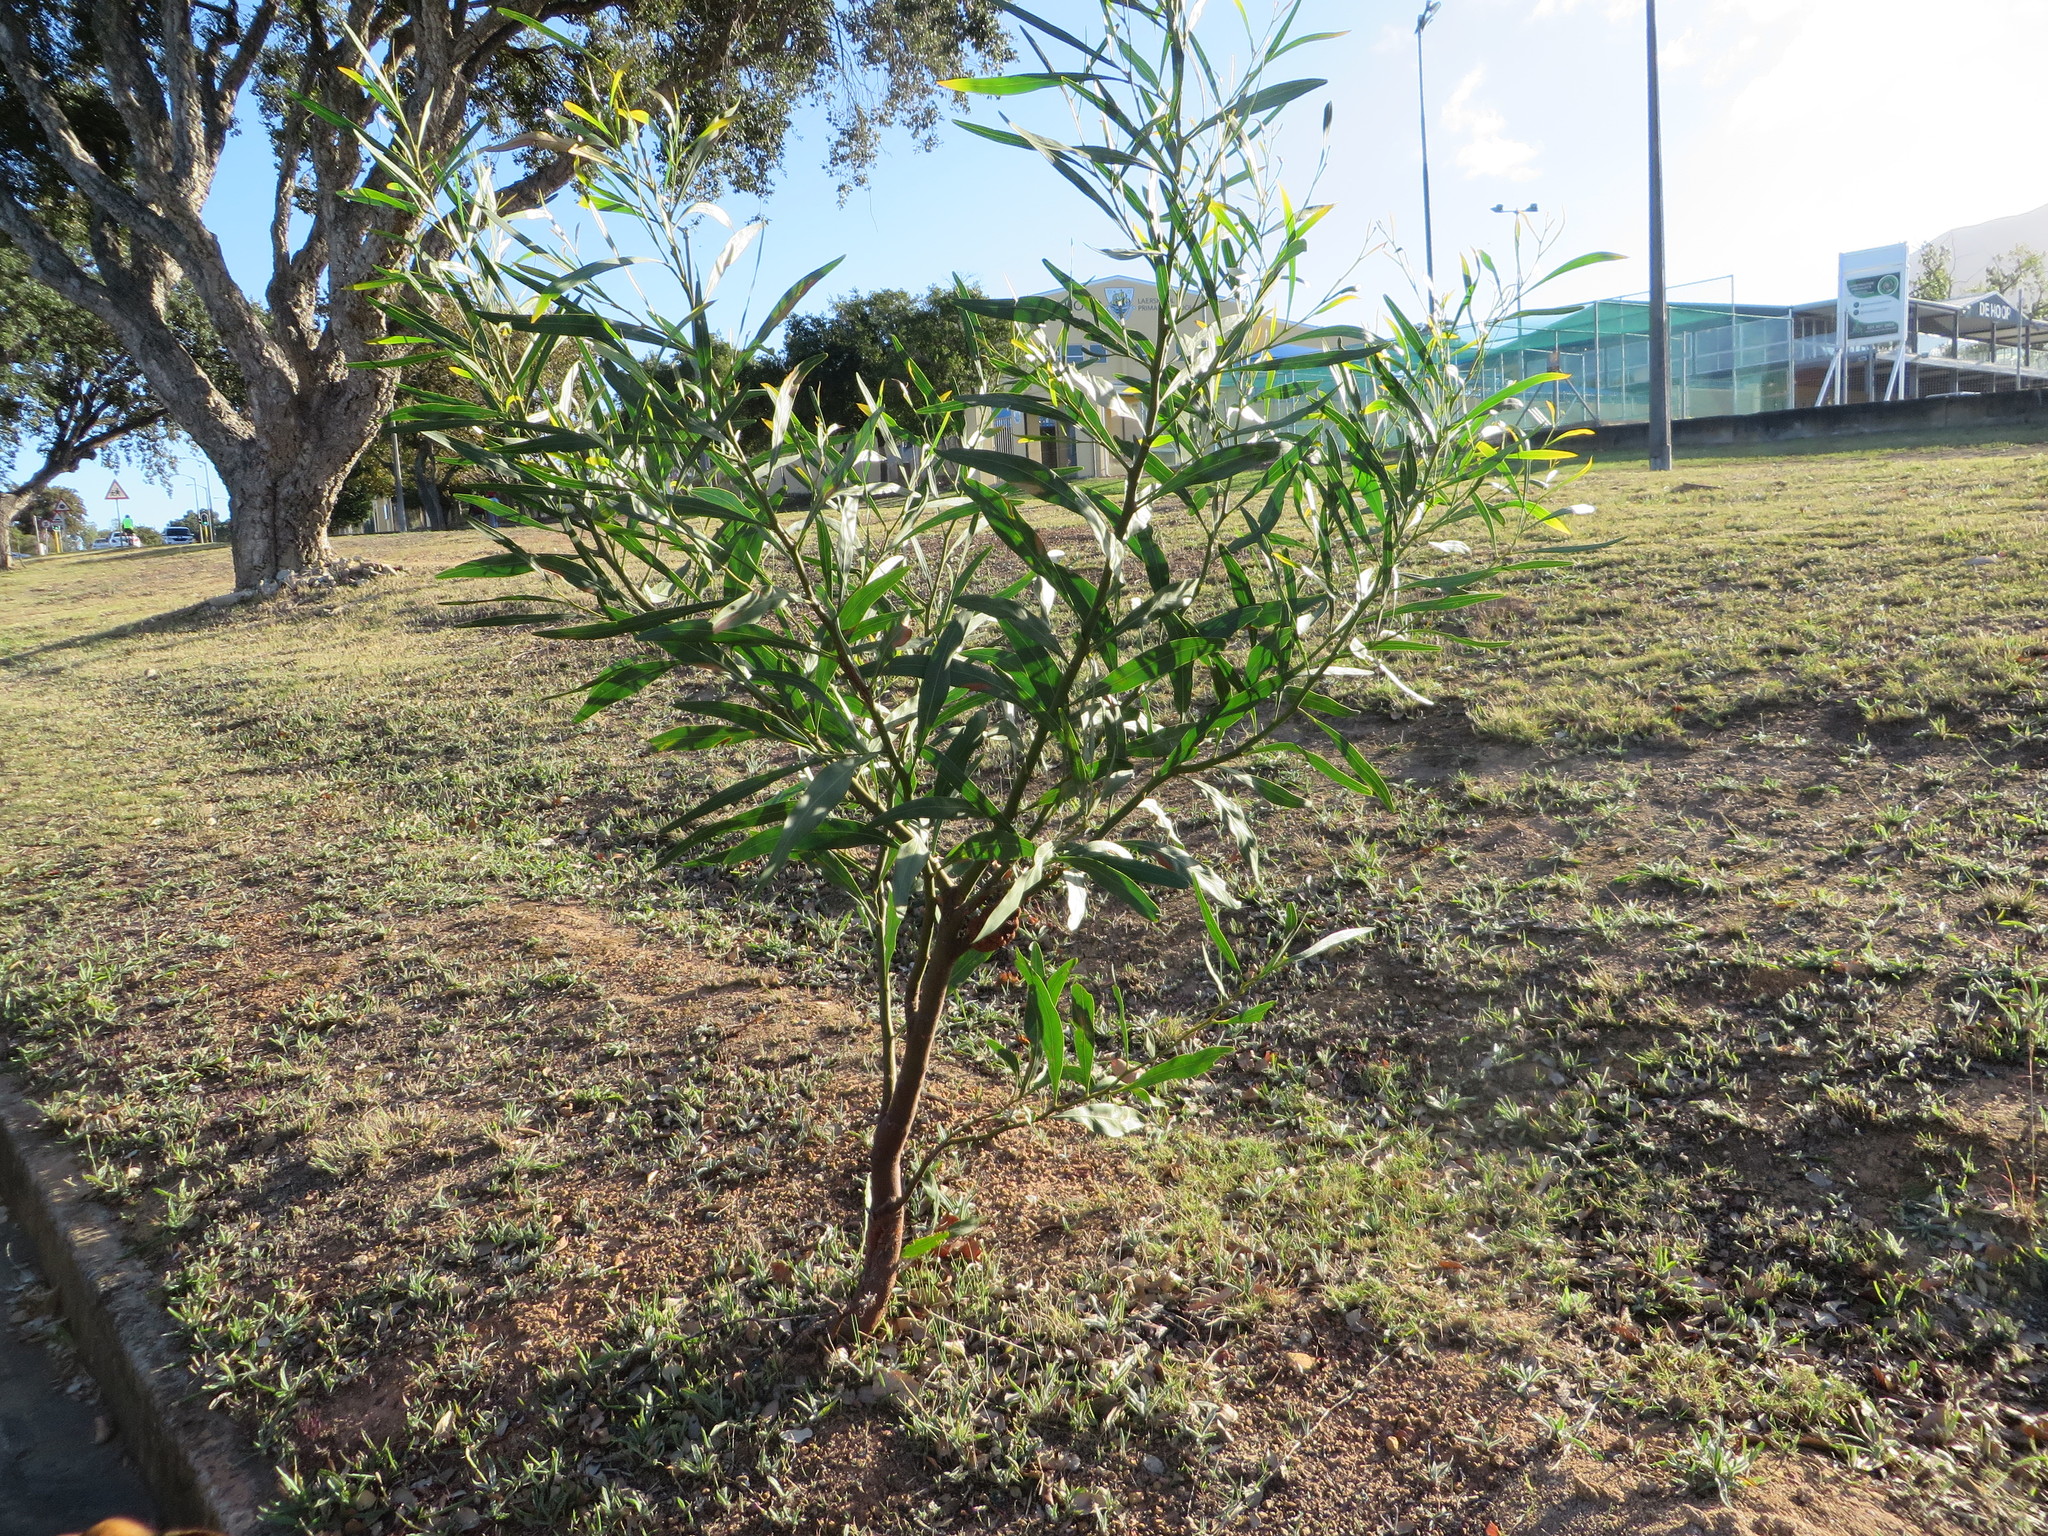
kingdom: Plantae
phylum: Tracheophyta
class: Magnoliopsida
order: Fabales
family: Fabaceae
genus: Acacia
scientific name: Acacia saligna
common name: Orange wattle
